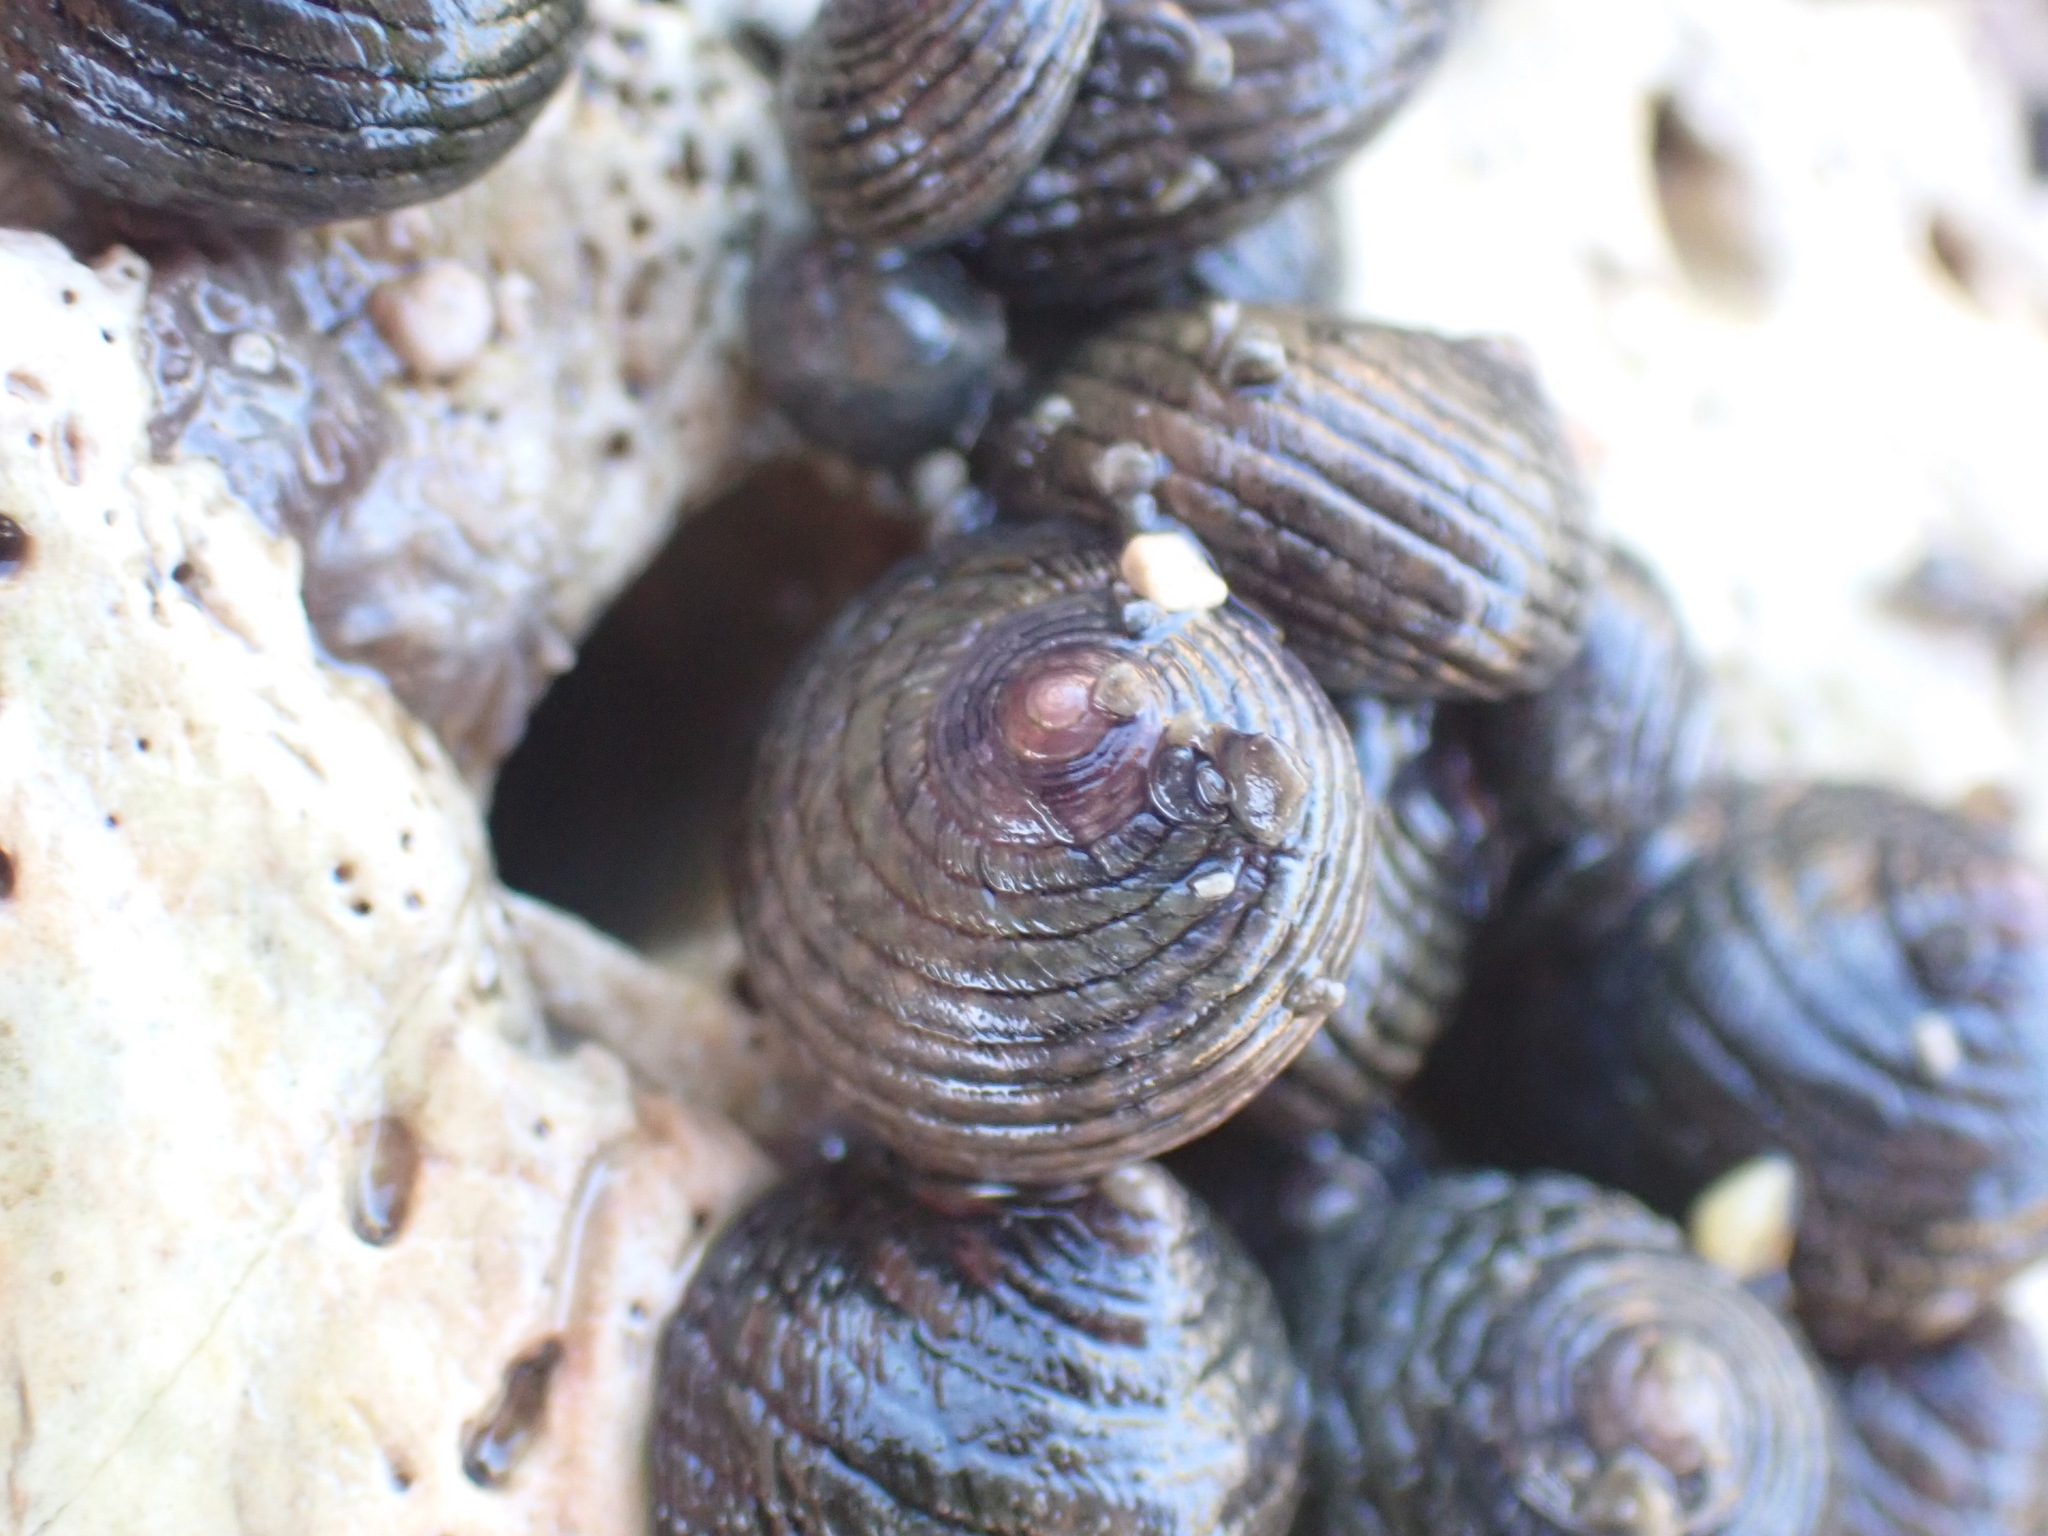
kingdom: Animalia
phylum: Mollusca
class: Gastropoda
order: Trochida
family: Trochidae
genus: Diloma
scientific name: Diloma aethiops
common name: Scorched monodont
